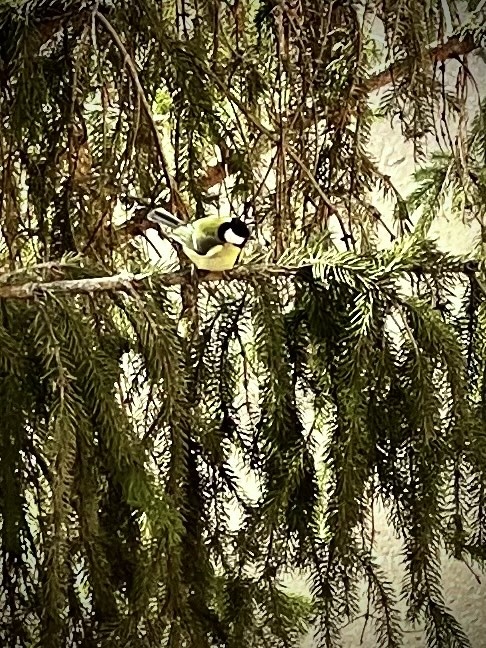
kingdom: Animalia
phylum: Chordata
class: Aves
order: Passeriformes
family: Paridae
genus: Parus
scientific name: Parus major
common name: Great tit
